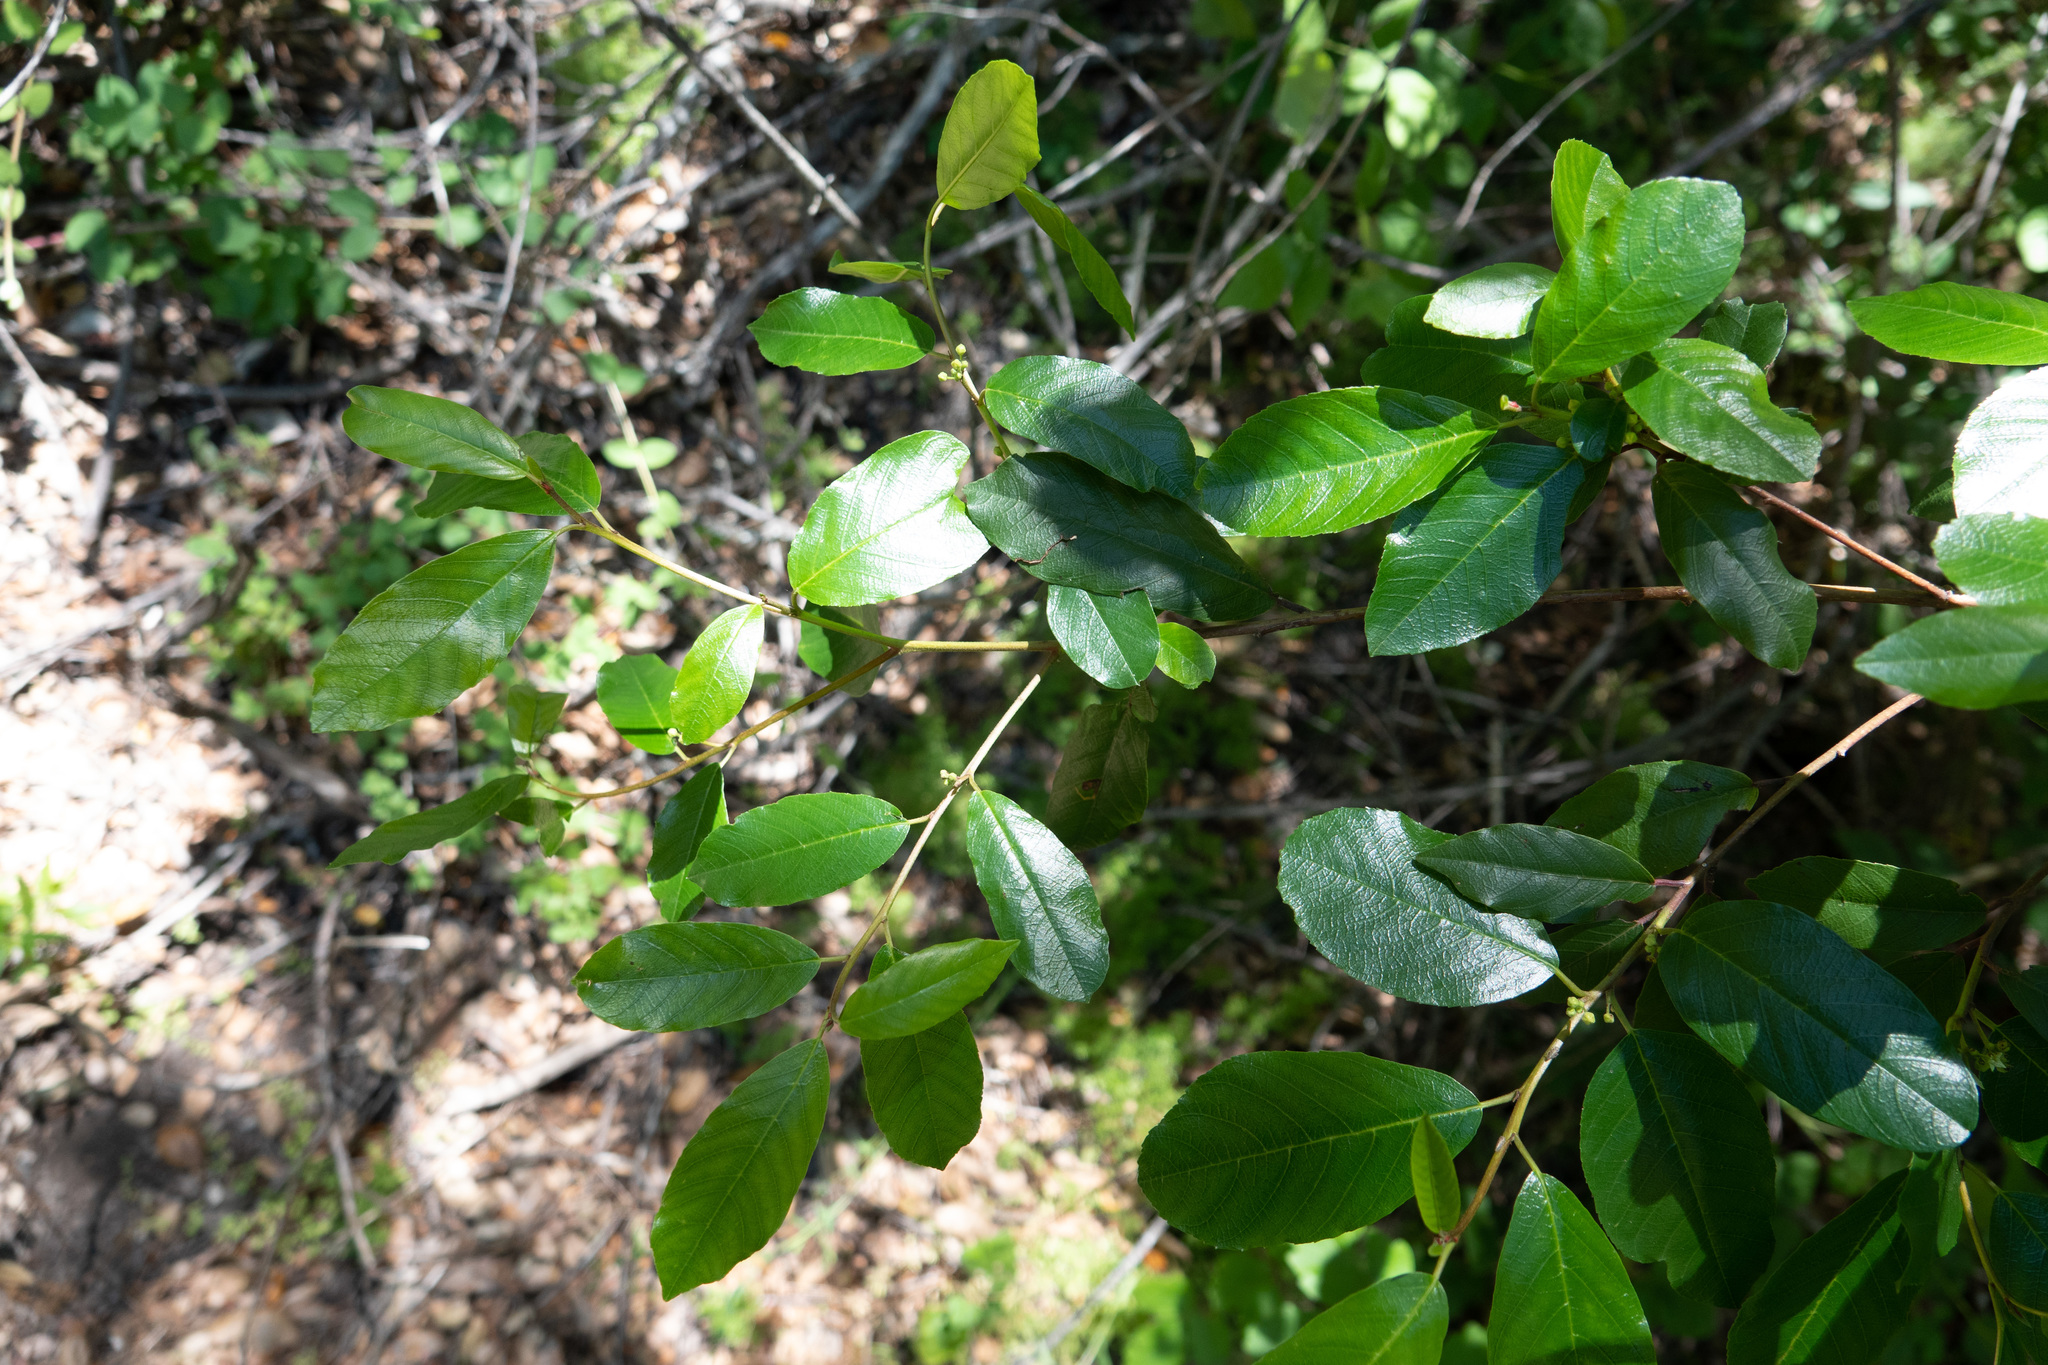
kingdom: Plantae
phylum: Tracheophyta
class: Magnoliopsida
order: Rosales
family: Rhamnaceae
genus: Frangula
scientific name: Frangula californica
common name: California buckthorn
